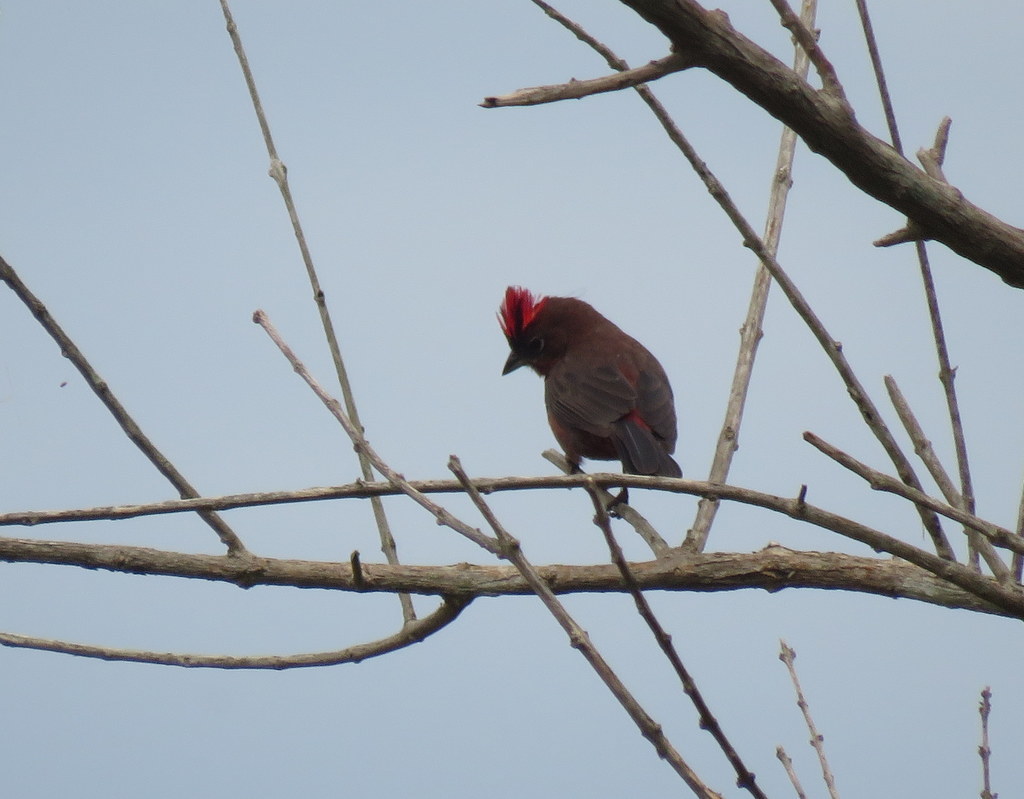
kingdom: Animalia
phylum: Chordata
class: Aves
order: Passeriformes
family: Thraupidae
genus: Coryphospingus
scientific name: Coryphospingus cucullatus
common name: Red pileated finch
